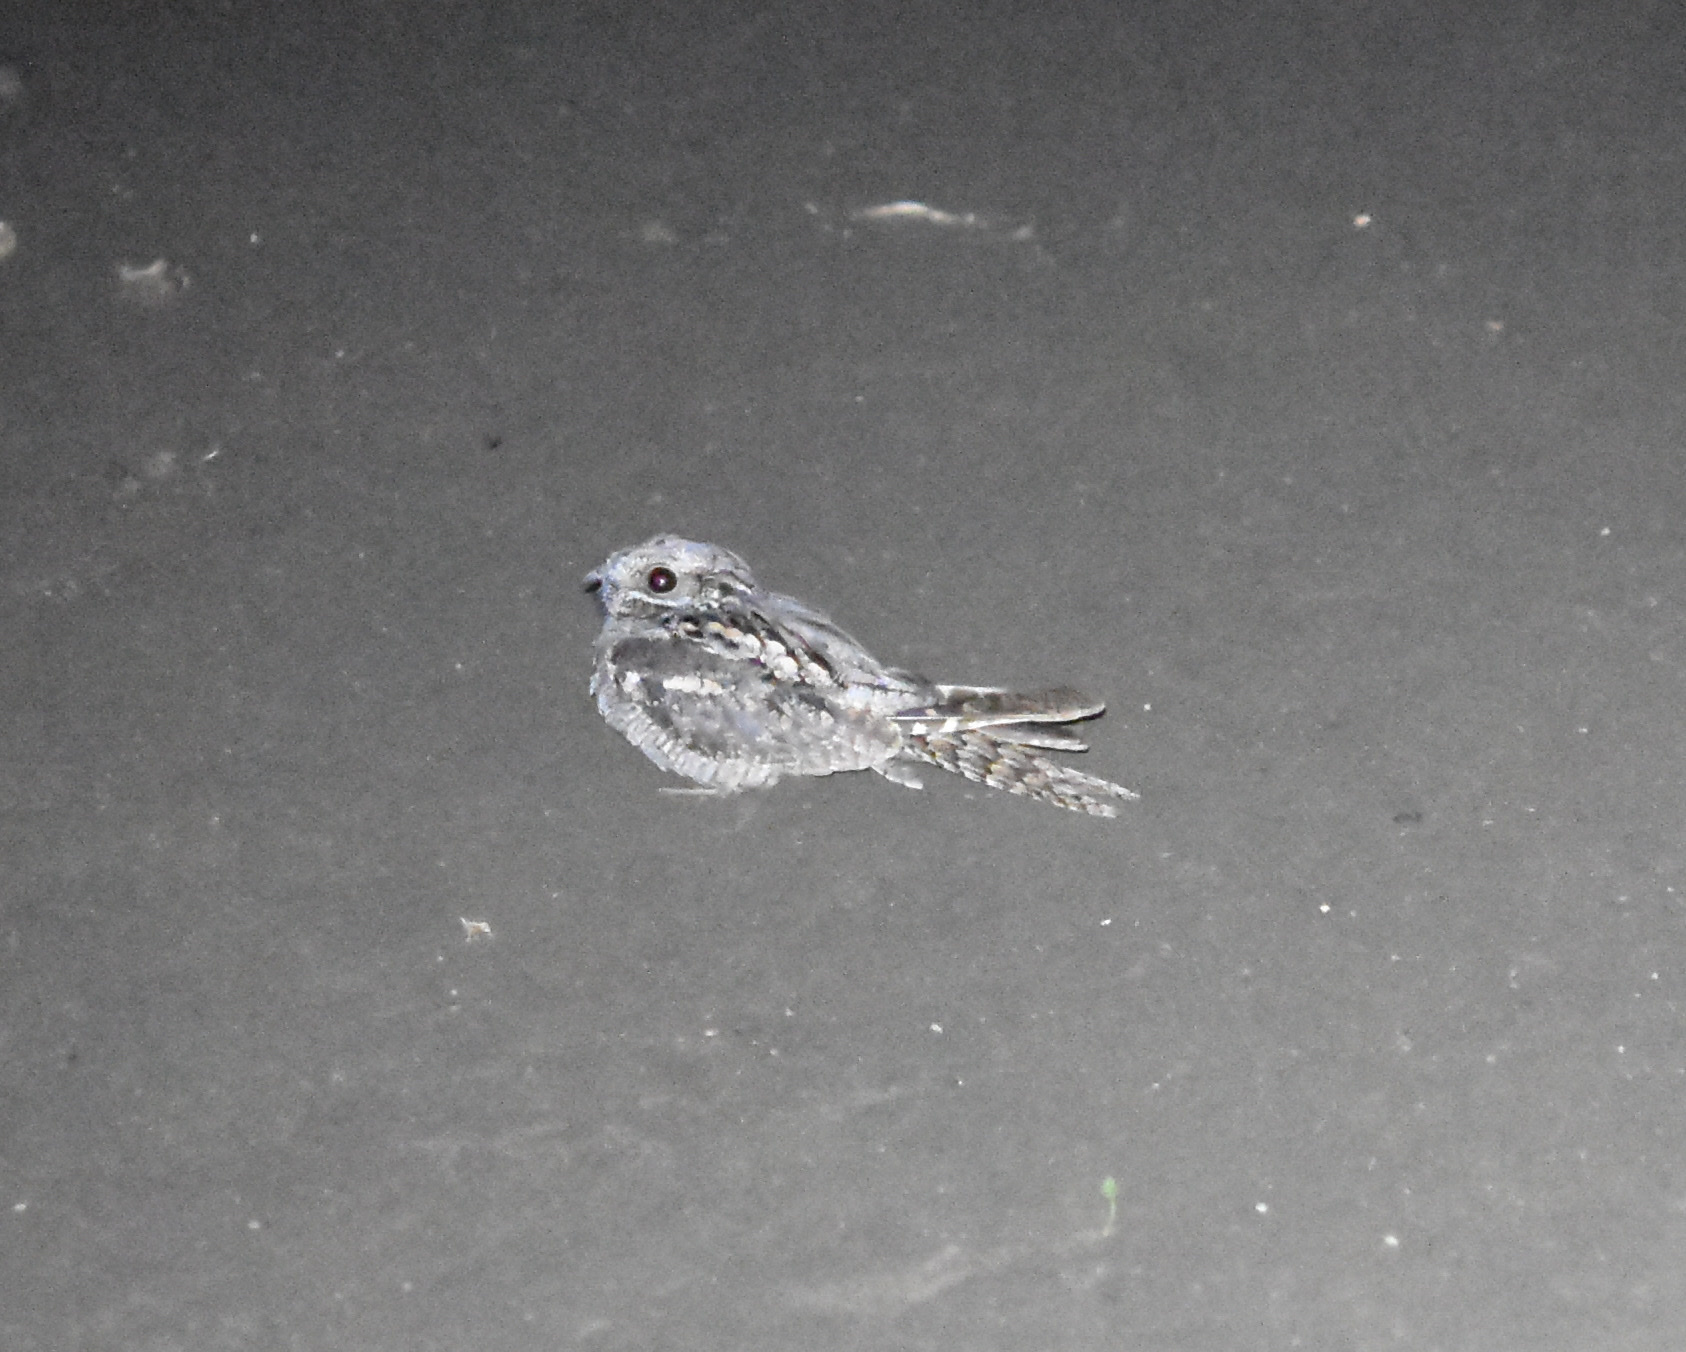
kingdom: Animalia
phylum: Chordata
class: Aves
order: Caprimulgiformes
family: Caprimulgidae
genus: Caprimulgus
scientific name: Caprimulgus europaeus
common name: European nightjar
